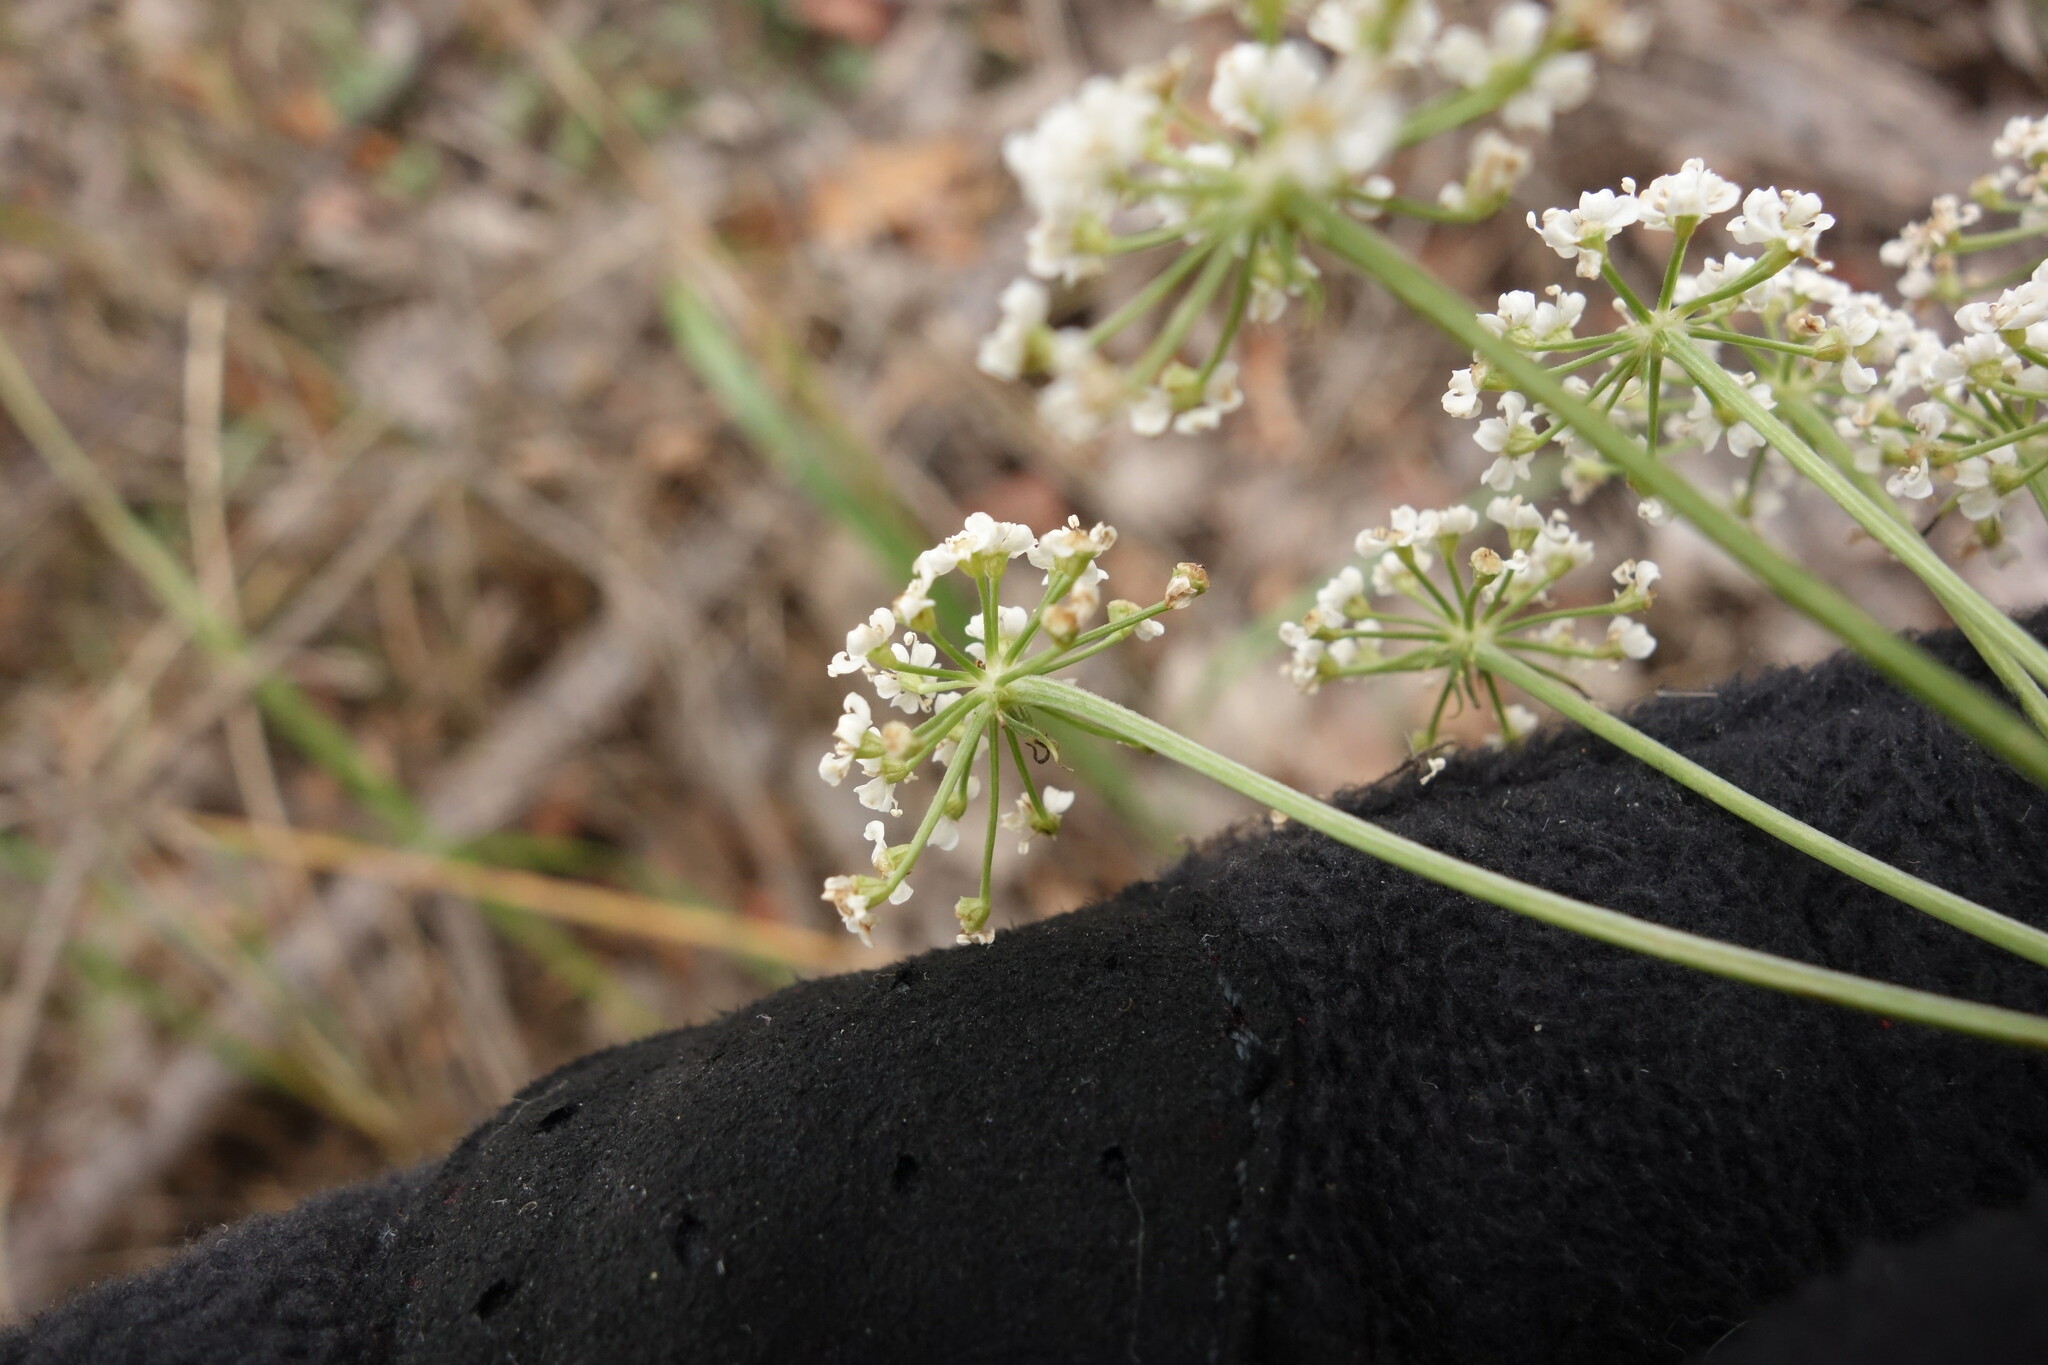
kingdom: Plantae
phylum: Tracheophyta
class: Magnoliopsida
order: Apiales
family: Apiaceae
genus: Oreoselinum
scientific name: Oreoselinum nigrum
